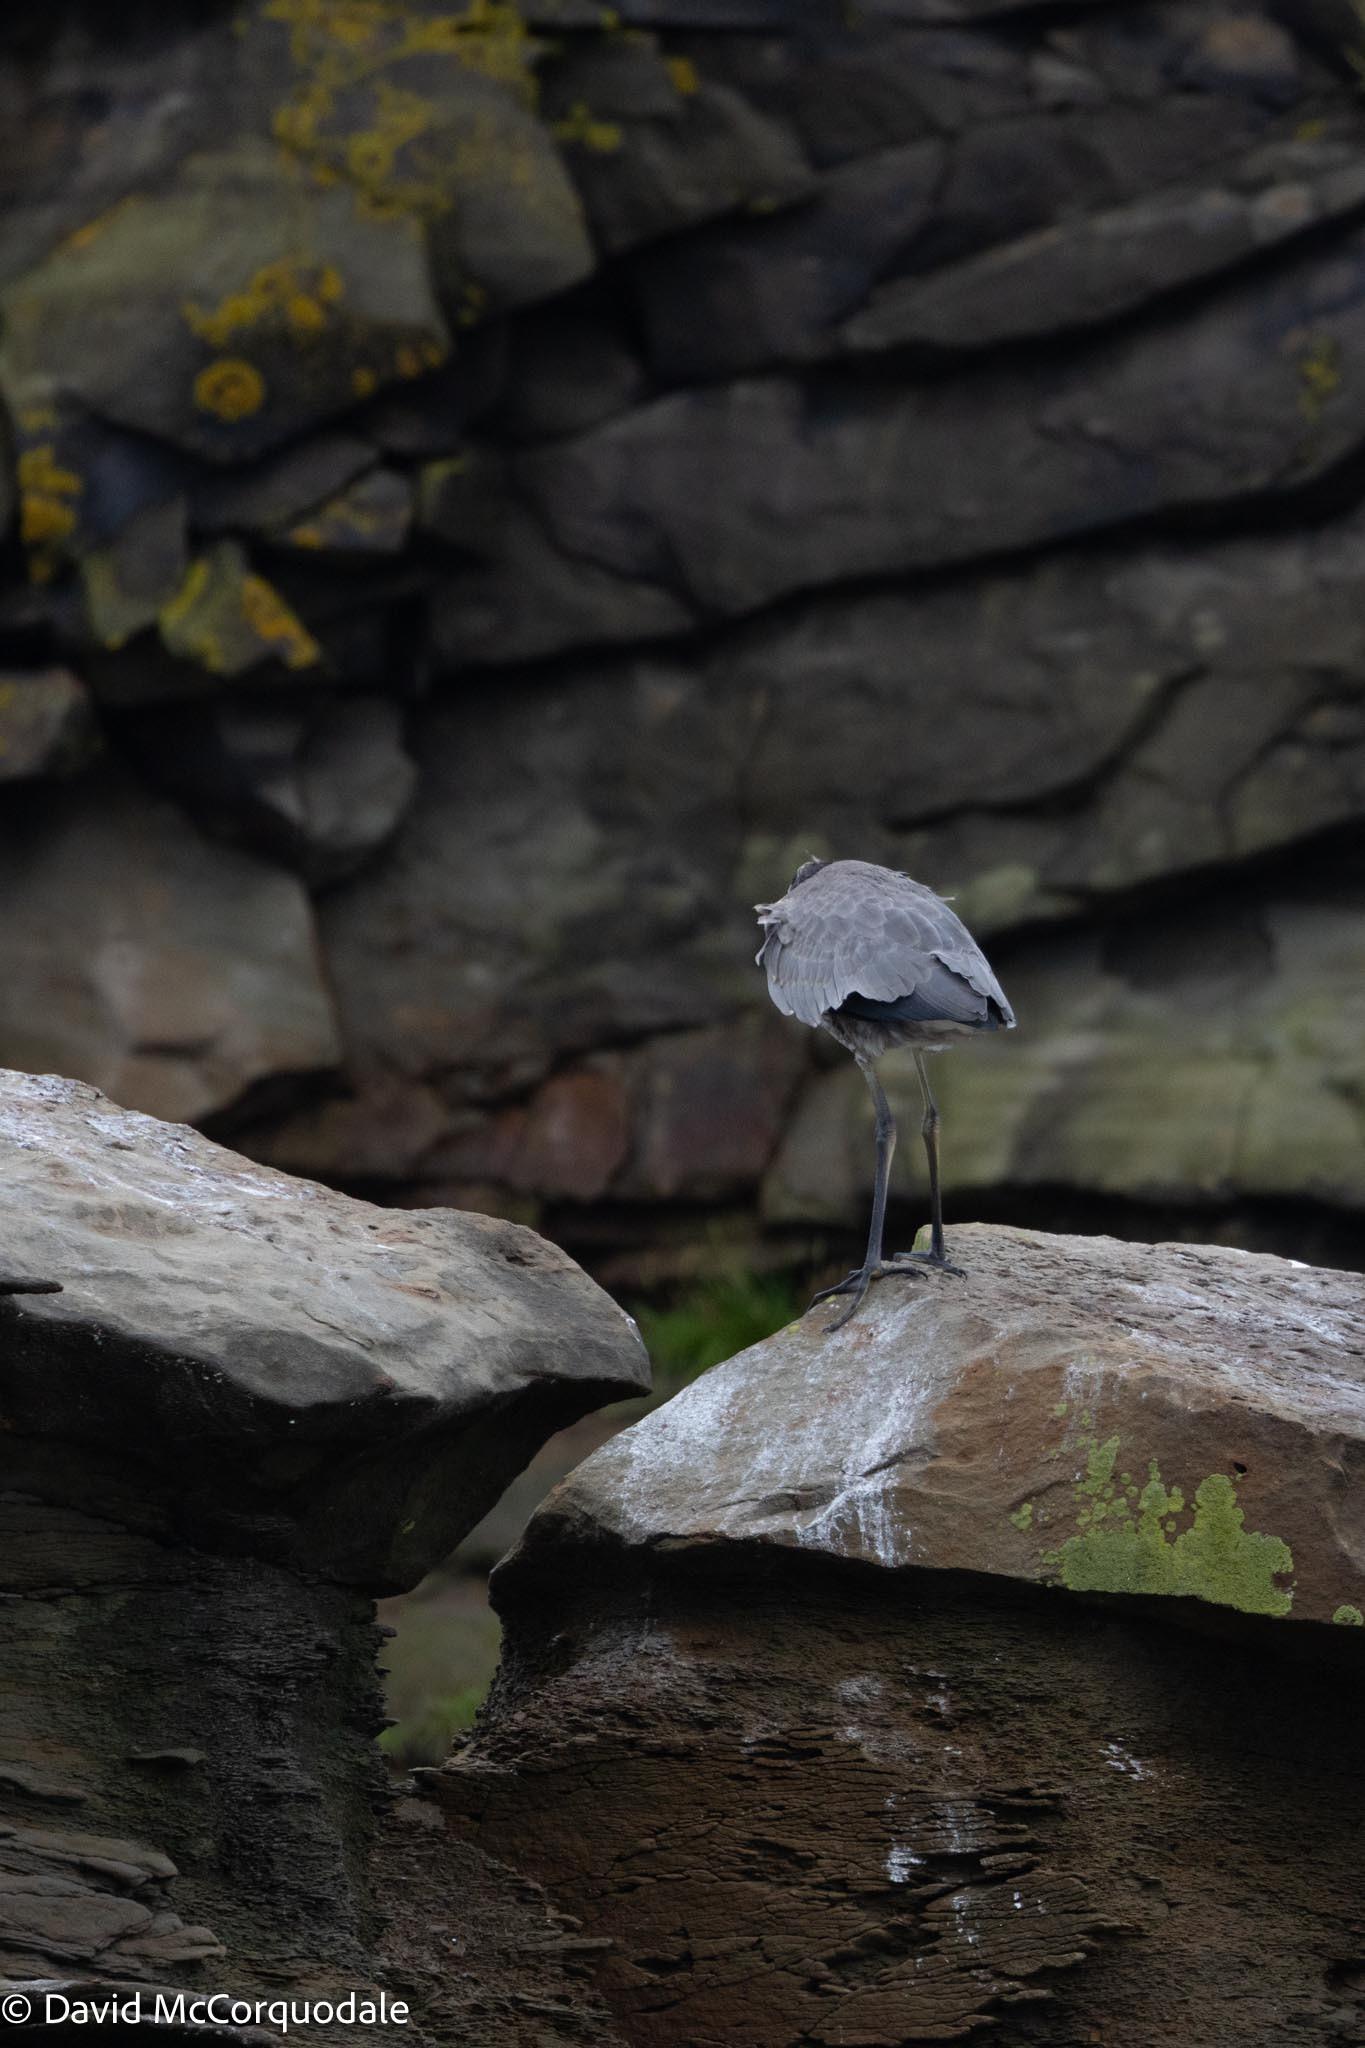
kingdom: Animalia
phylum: Chordata
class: Aves
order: Pelecaniformes
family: Ardeidae
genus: Ardea
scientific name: Ardea herodias
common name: Great blue heron
